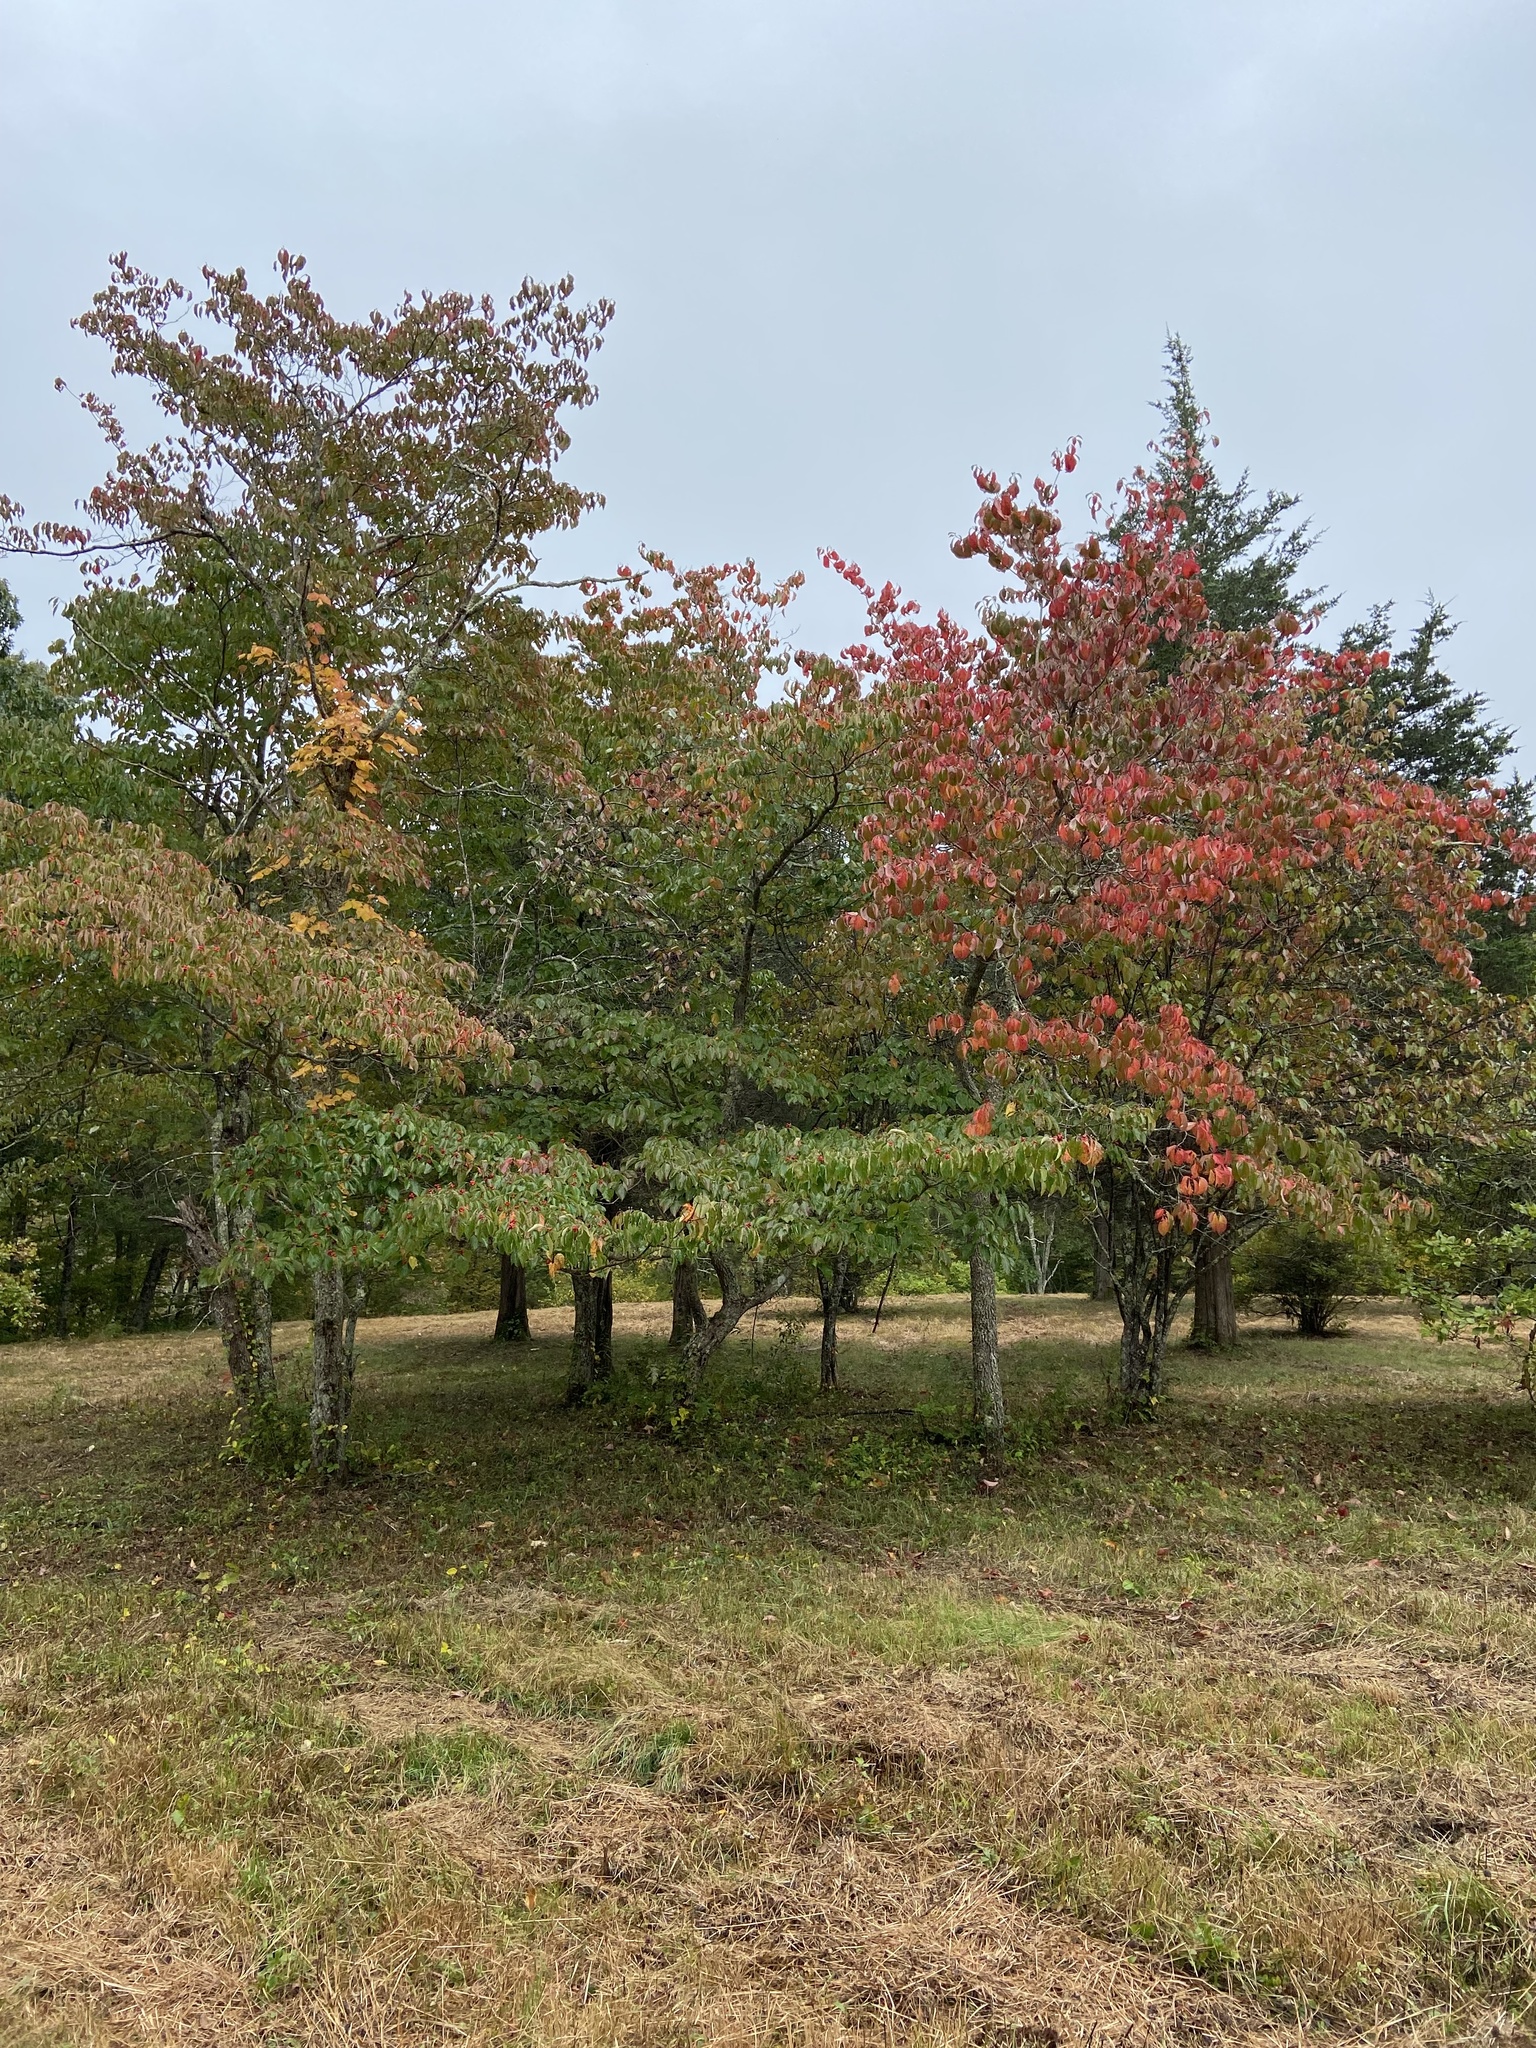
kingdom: Plantae
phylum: Tracheophyta
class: Magnoliopsida
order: Cornales
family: Cornaceae
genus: Cornus
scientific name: Cornus florida
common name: Flowering dogwood
